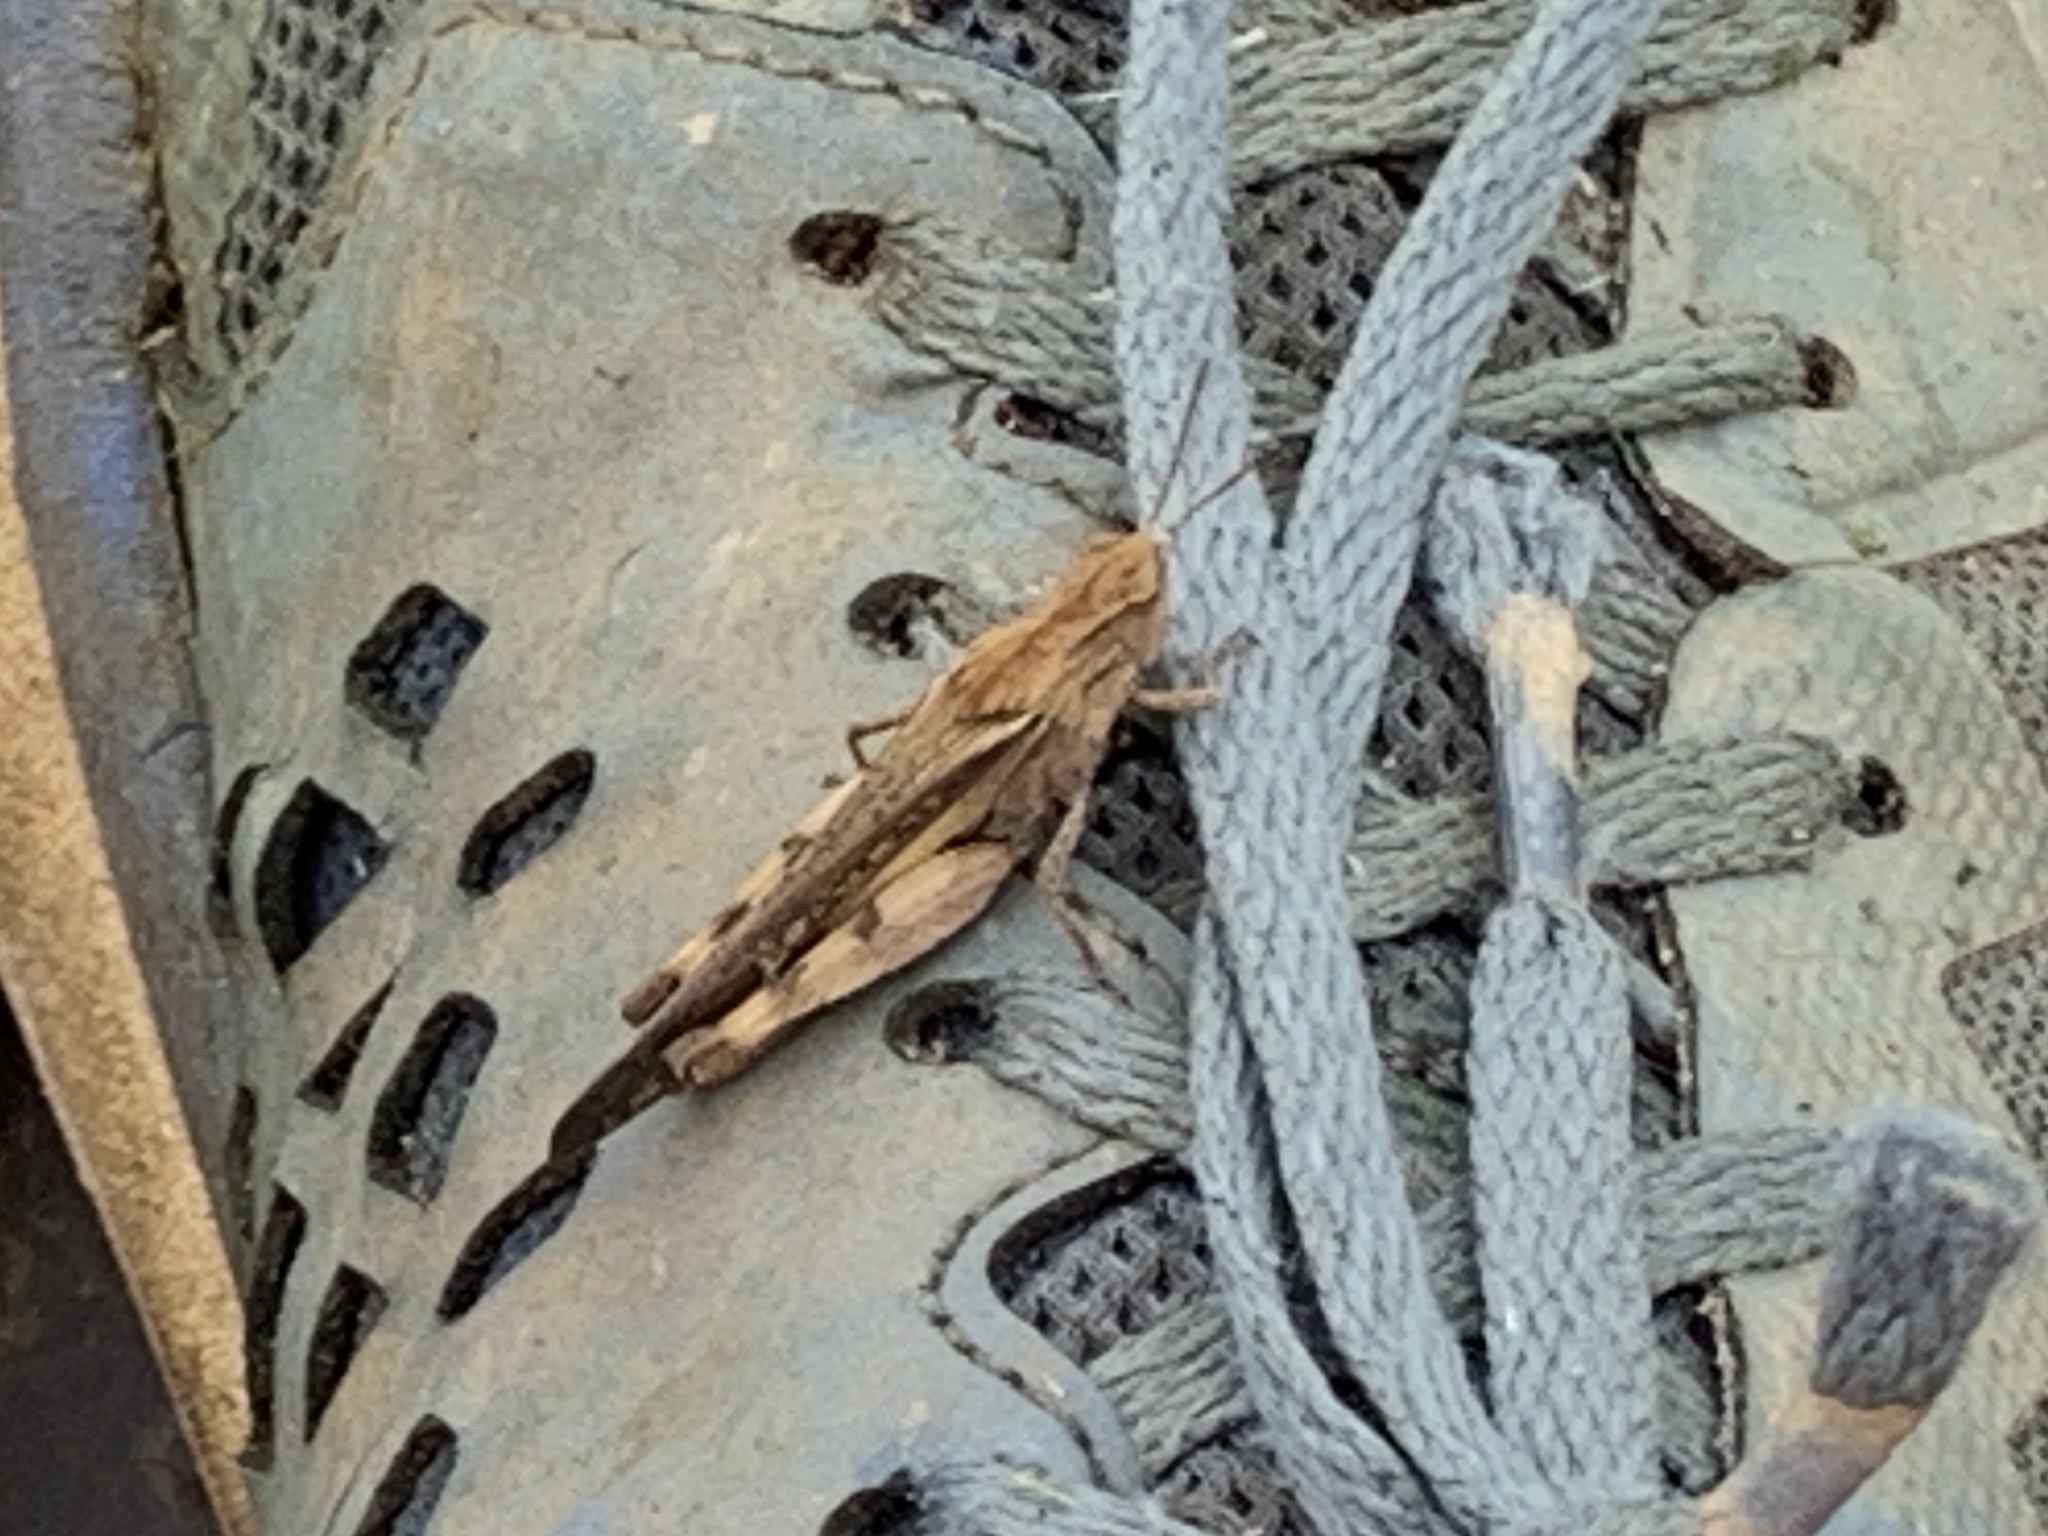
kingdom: Animalia
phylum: Arthropoda
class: Insecta
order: Orthoptera
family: Acrididae
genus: Chortophaga
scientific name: Chortophaga viridifasciata
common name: Green-striped grasshopper
